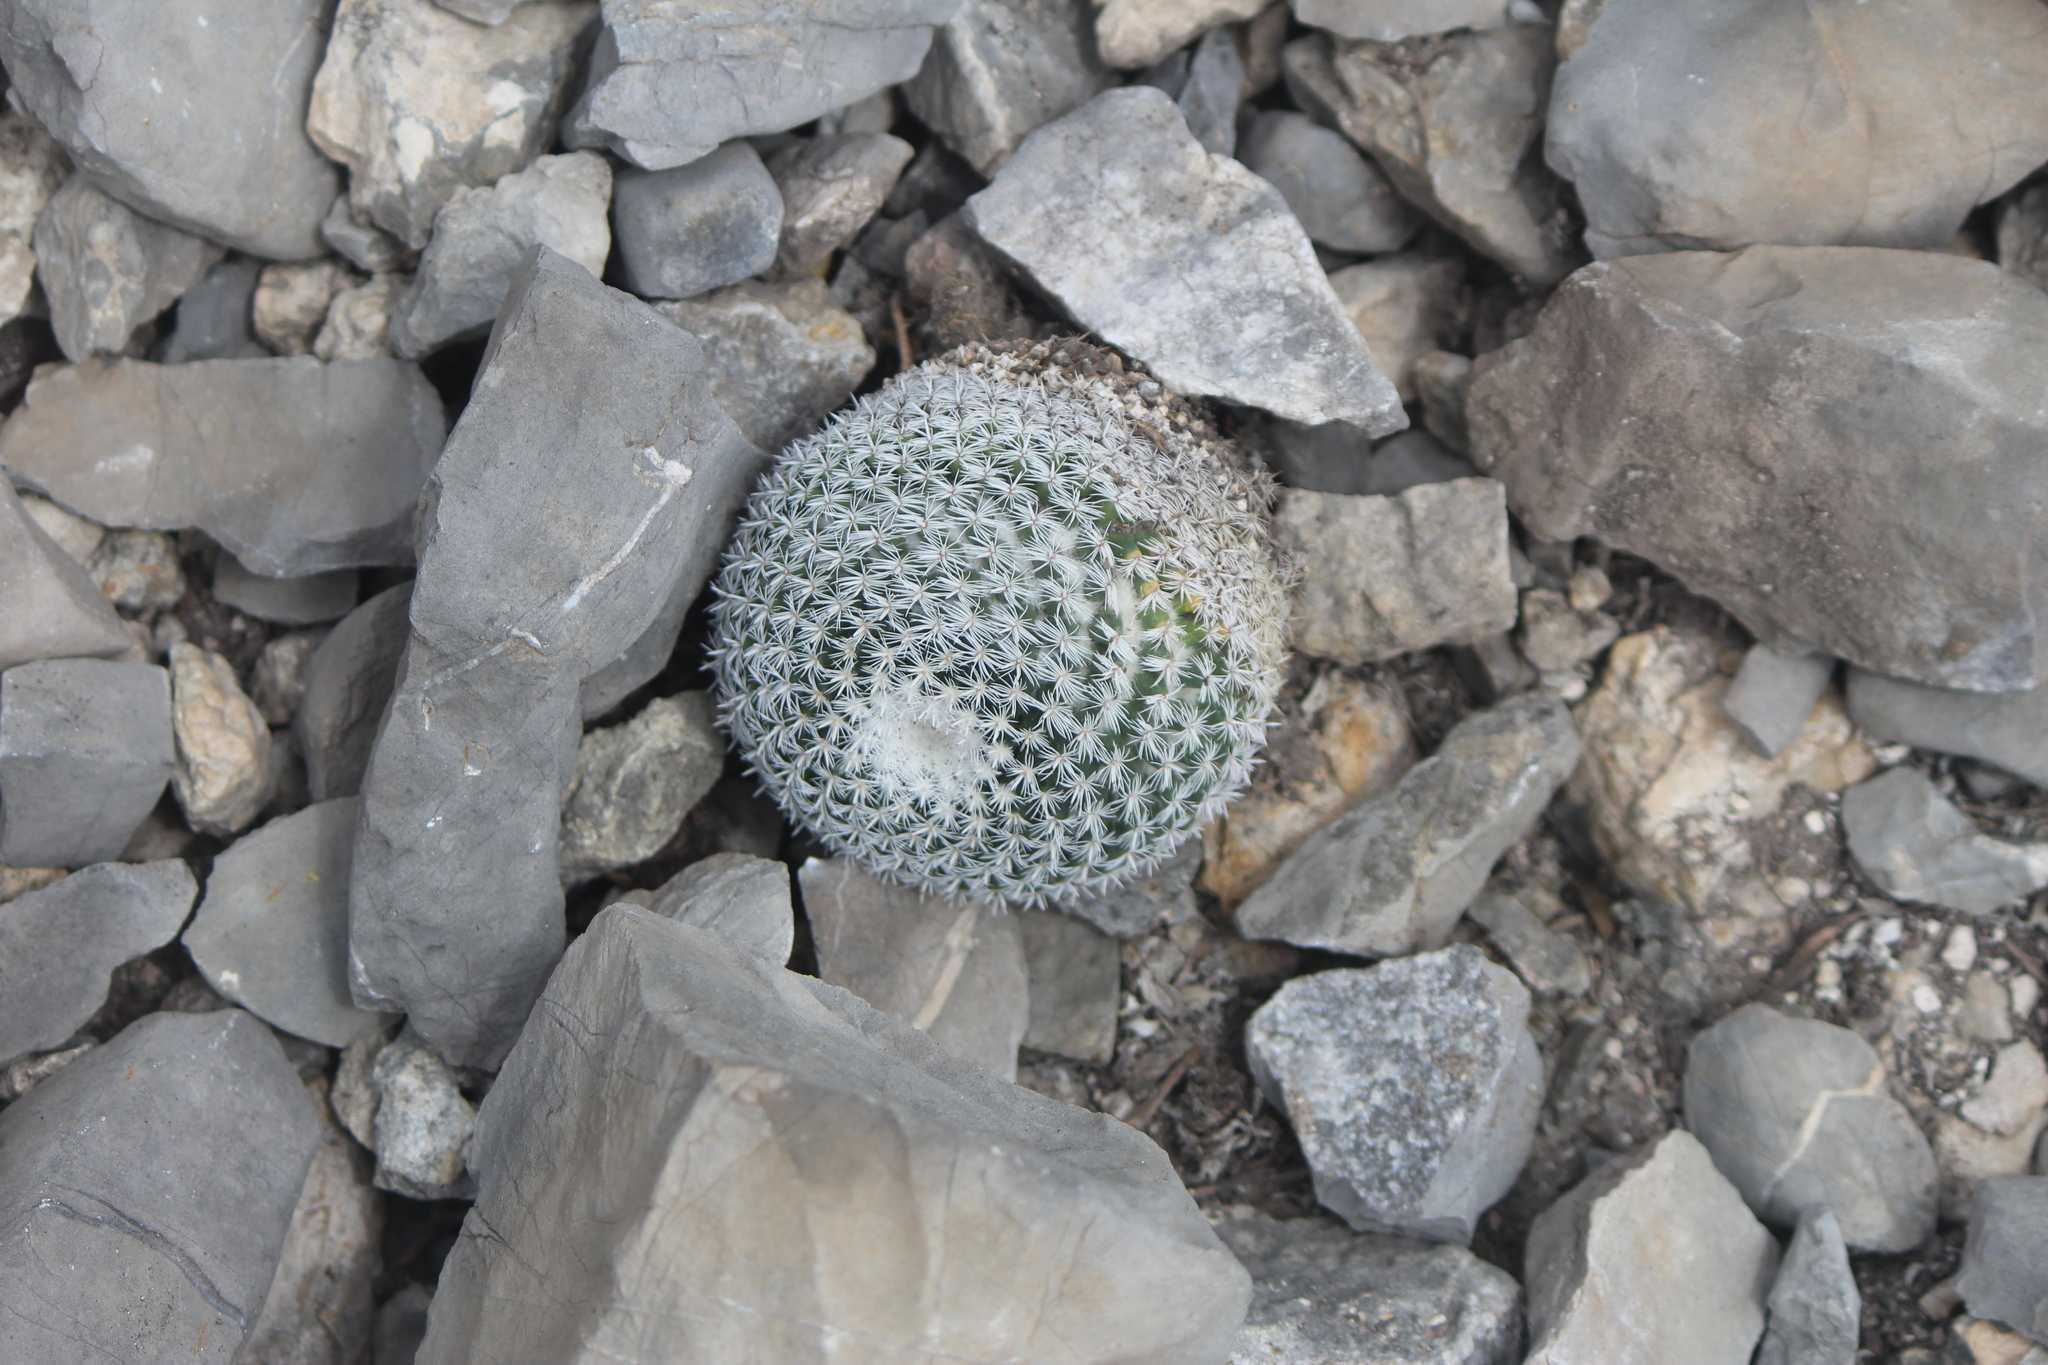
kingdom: Plantae
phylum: Tracheophyta
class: Magnoliopsida
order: Caryophyllales
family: Cactaceae
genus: Mammillaria
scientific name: Mammillaria perbella
